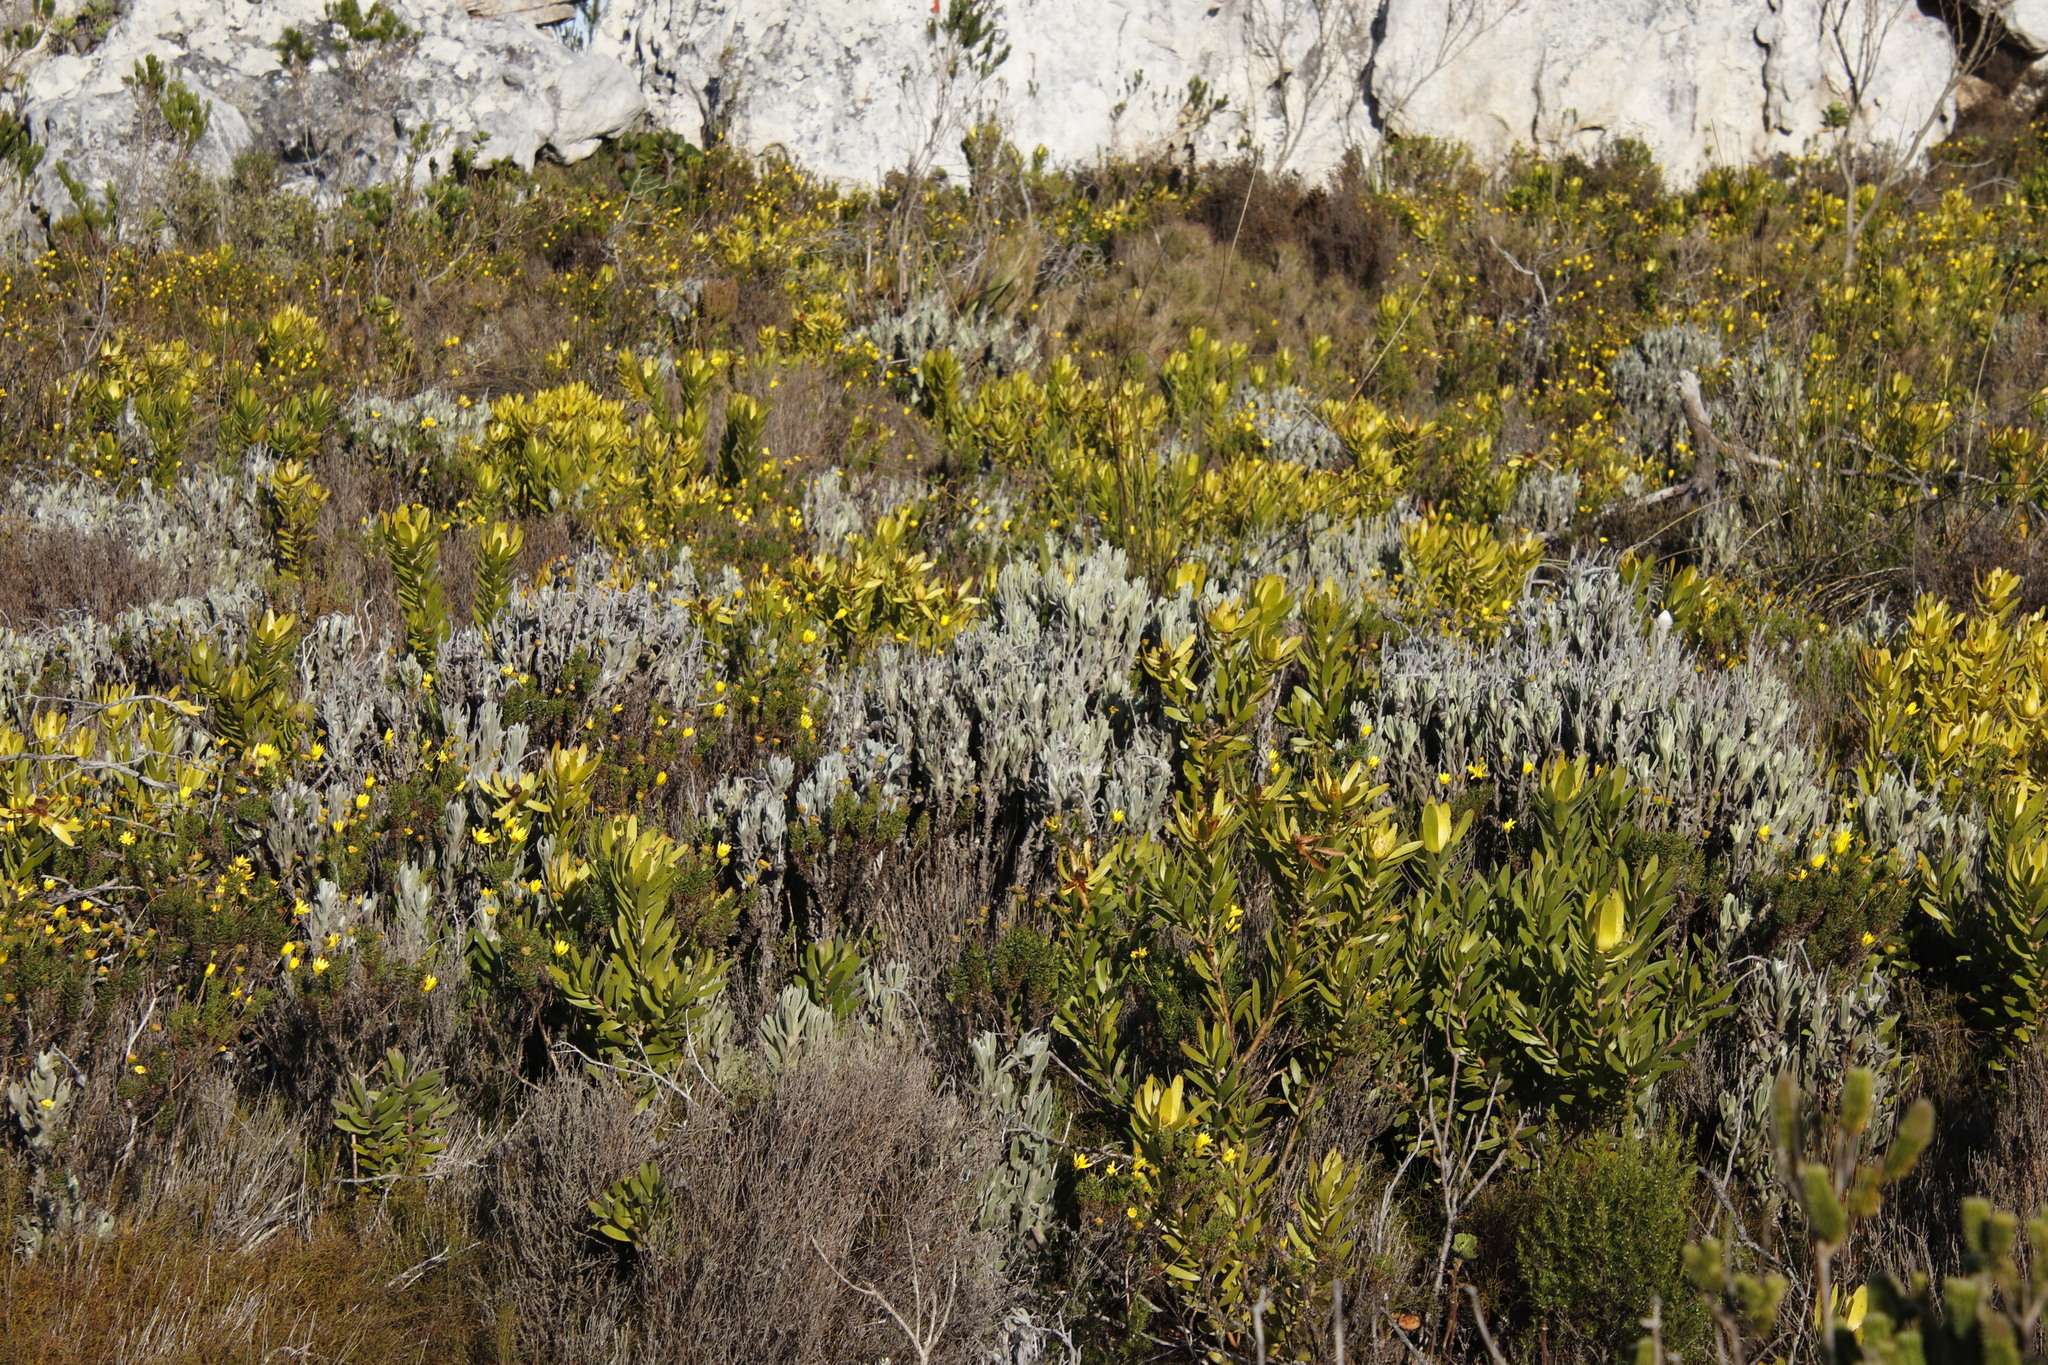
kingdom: Plantae
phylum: Tracheophyta
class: Magnoliopsida
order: Asterales
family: Asteraceae
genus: Syncarpha
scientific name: Syncarpha vestita
